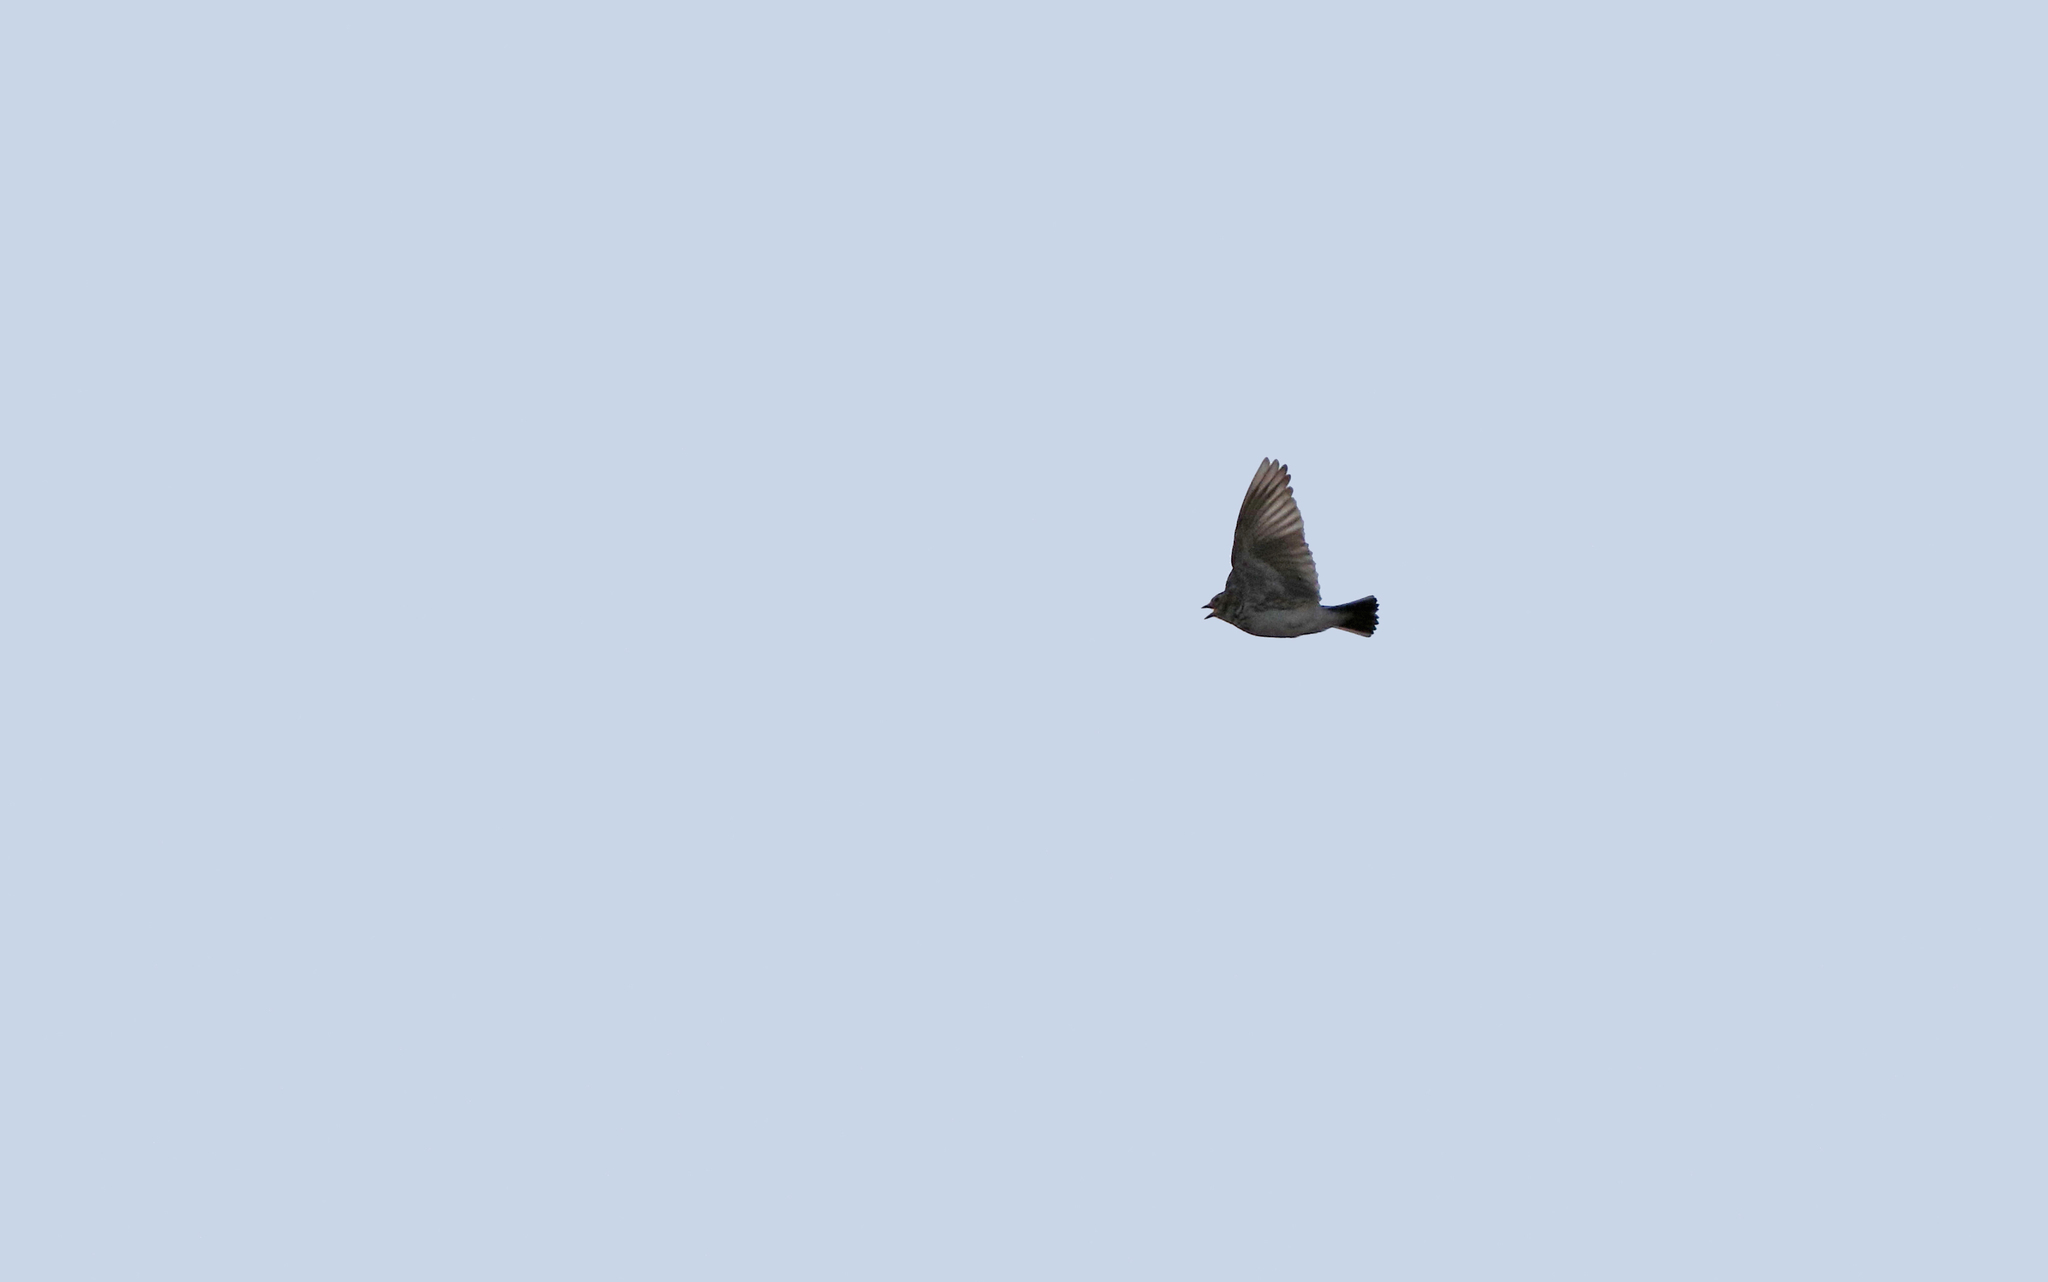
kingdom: Animalia
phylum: Chordata
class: Aves
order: Passeriformes
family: Alaudidae
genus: Calandrella
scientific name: Calandrella rufescens
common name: Lesser short-toed lark
